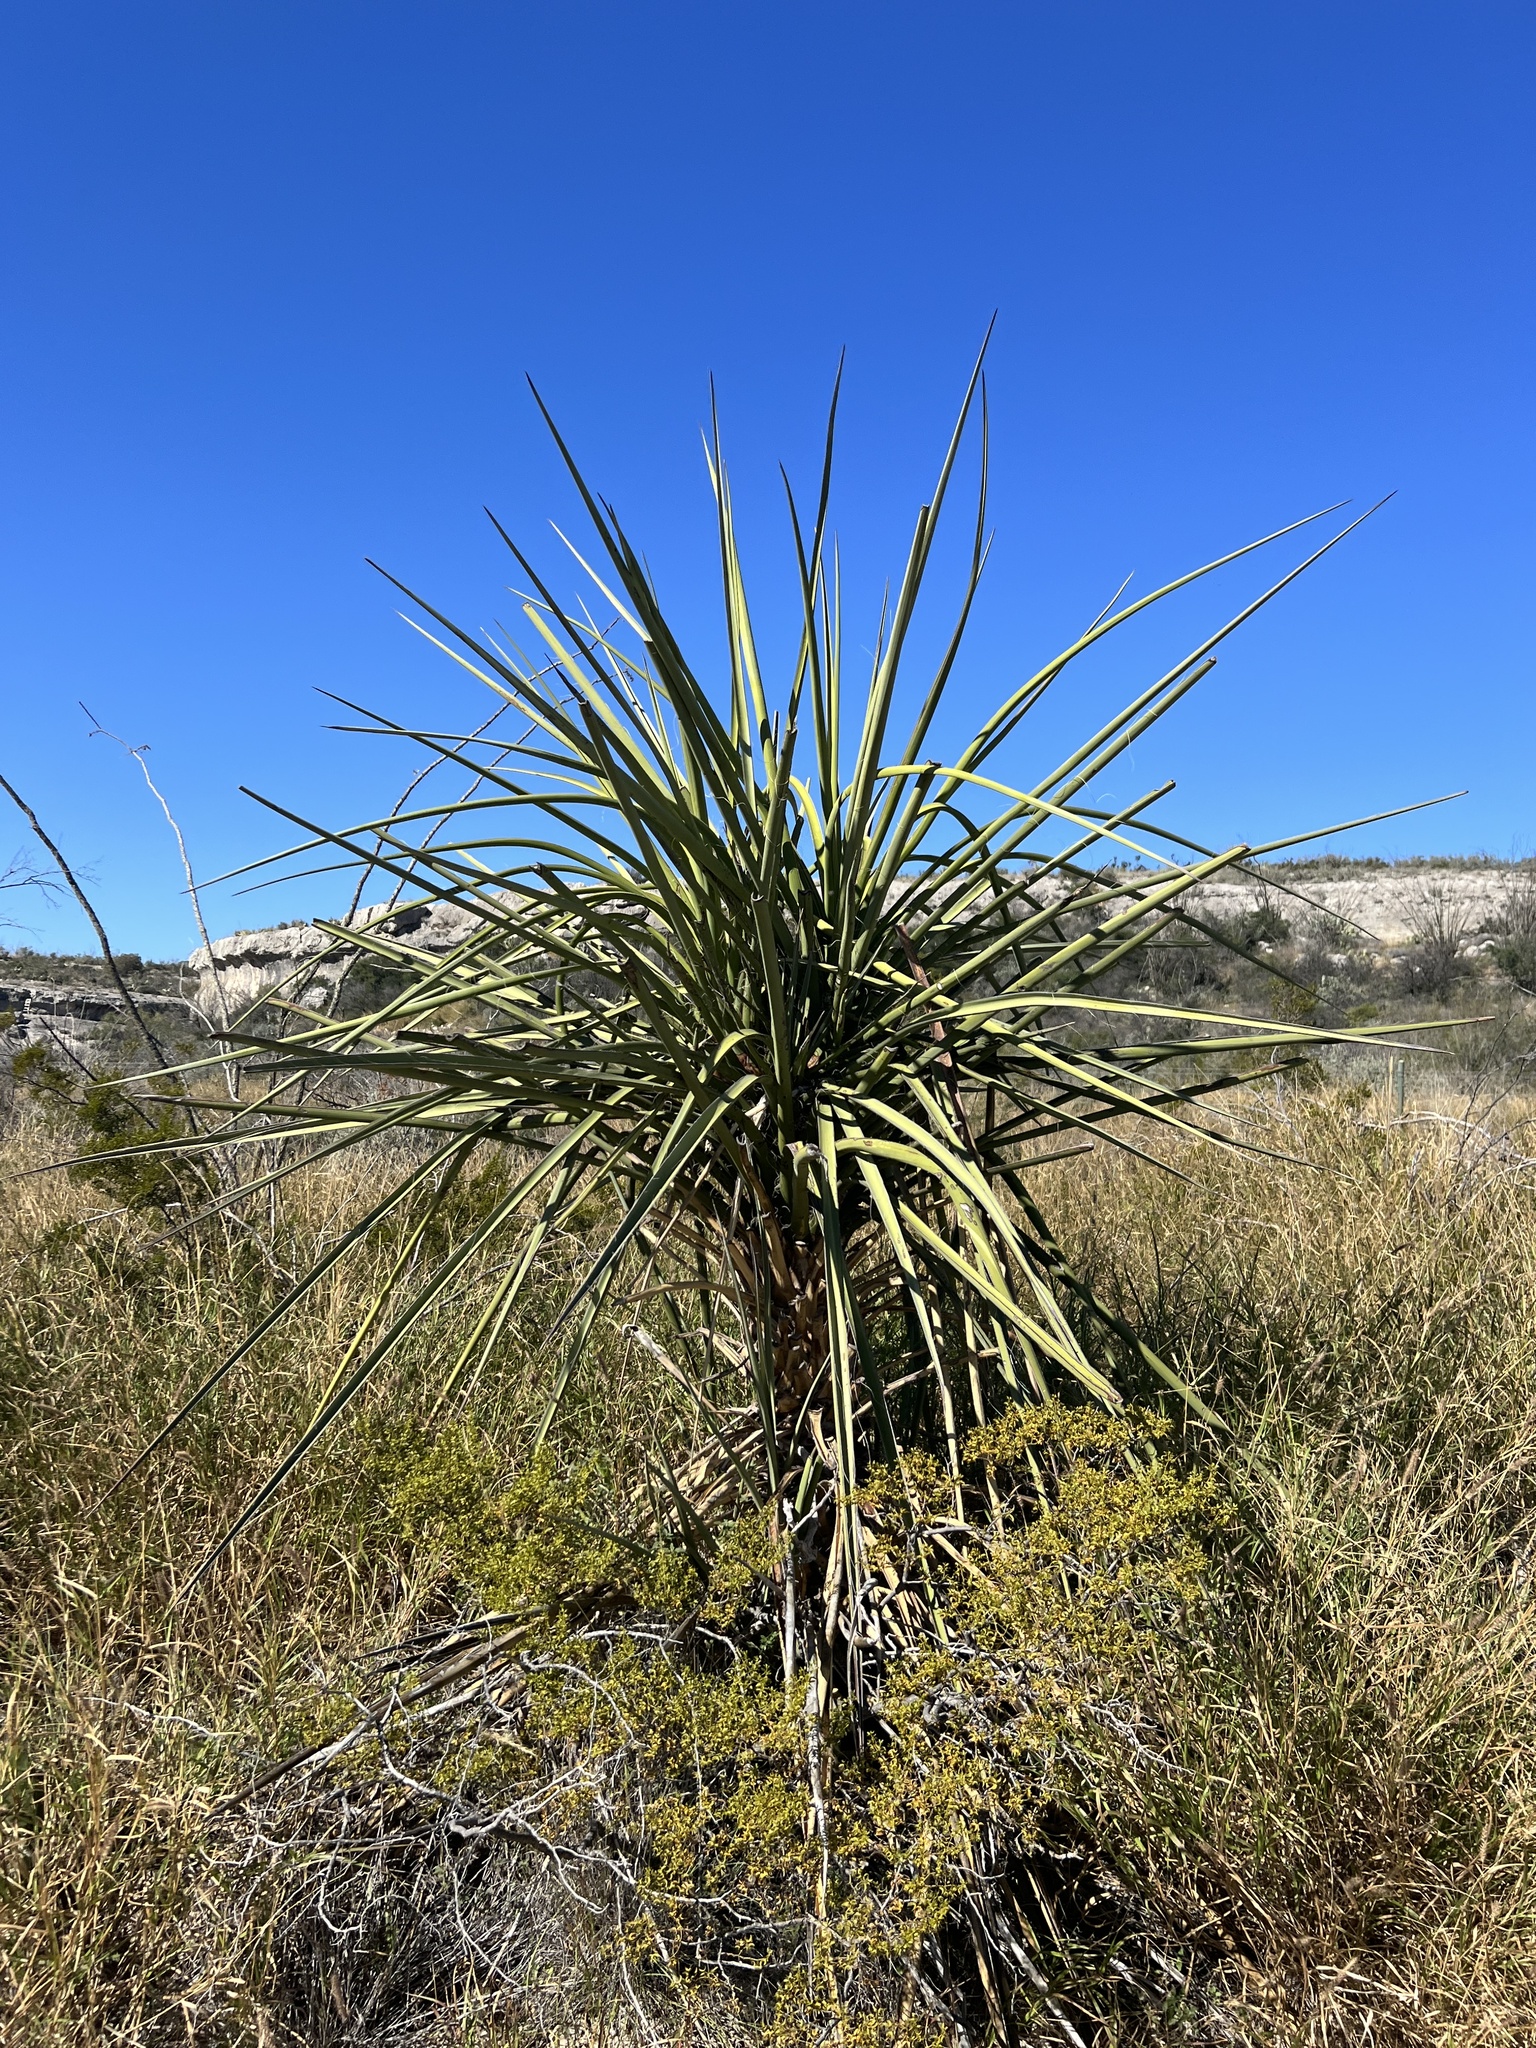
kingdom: Plantae
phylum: Tracheophyta
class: Liliopsida
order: Asparagales
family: Asparagaceae
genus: Yucca
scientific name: Yucca treculiana
